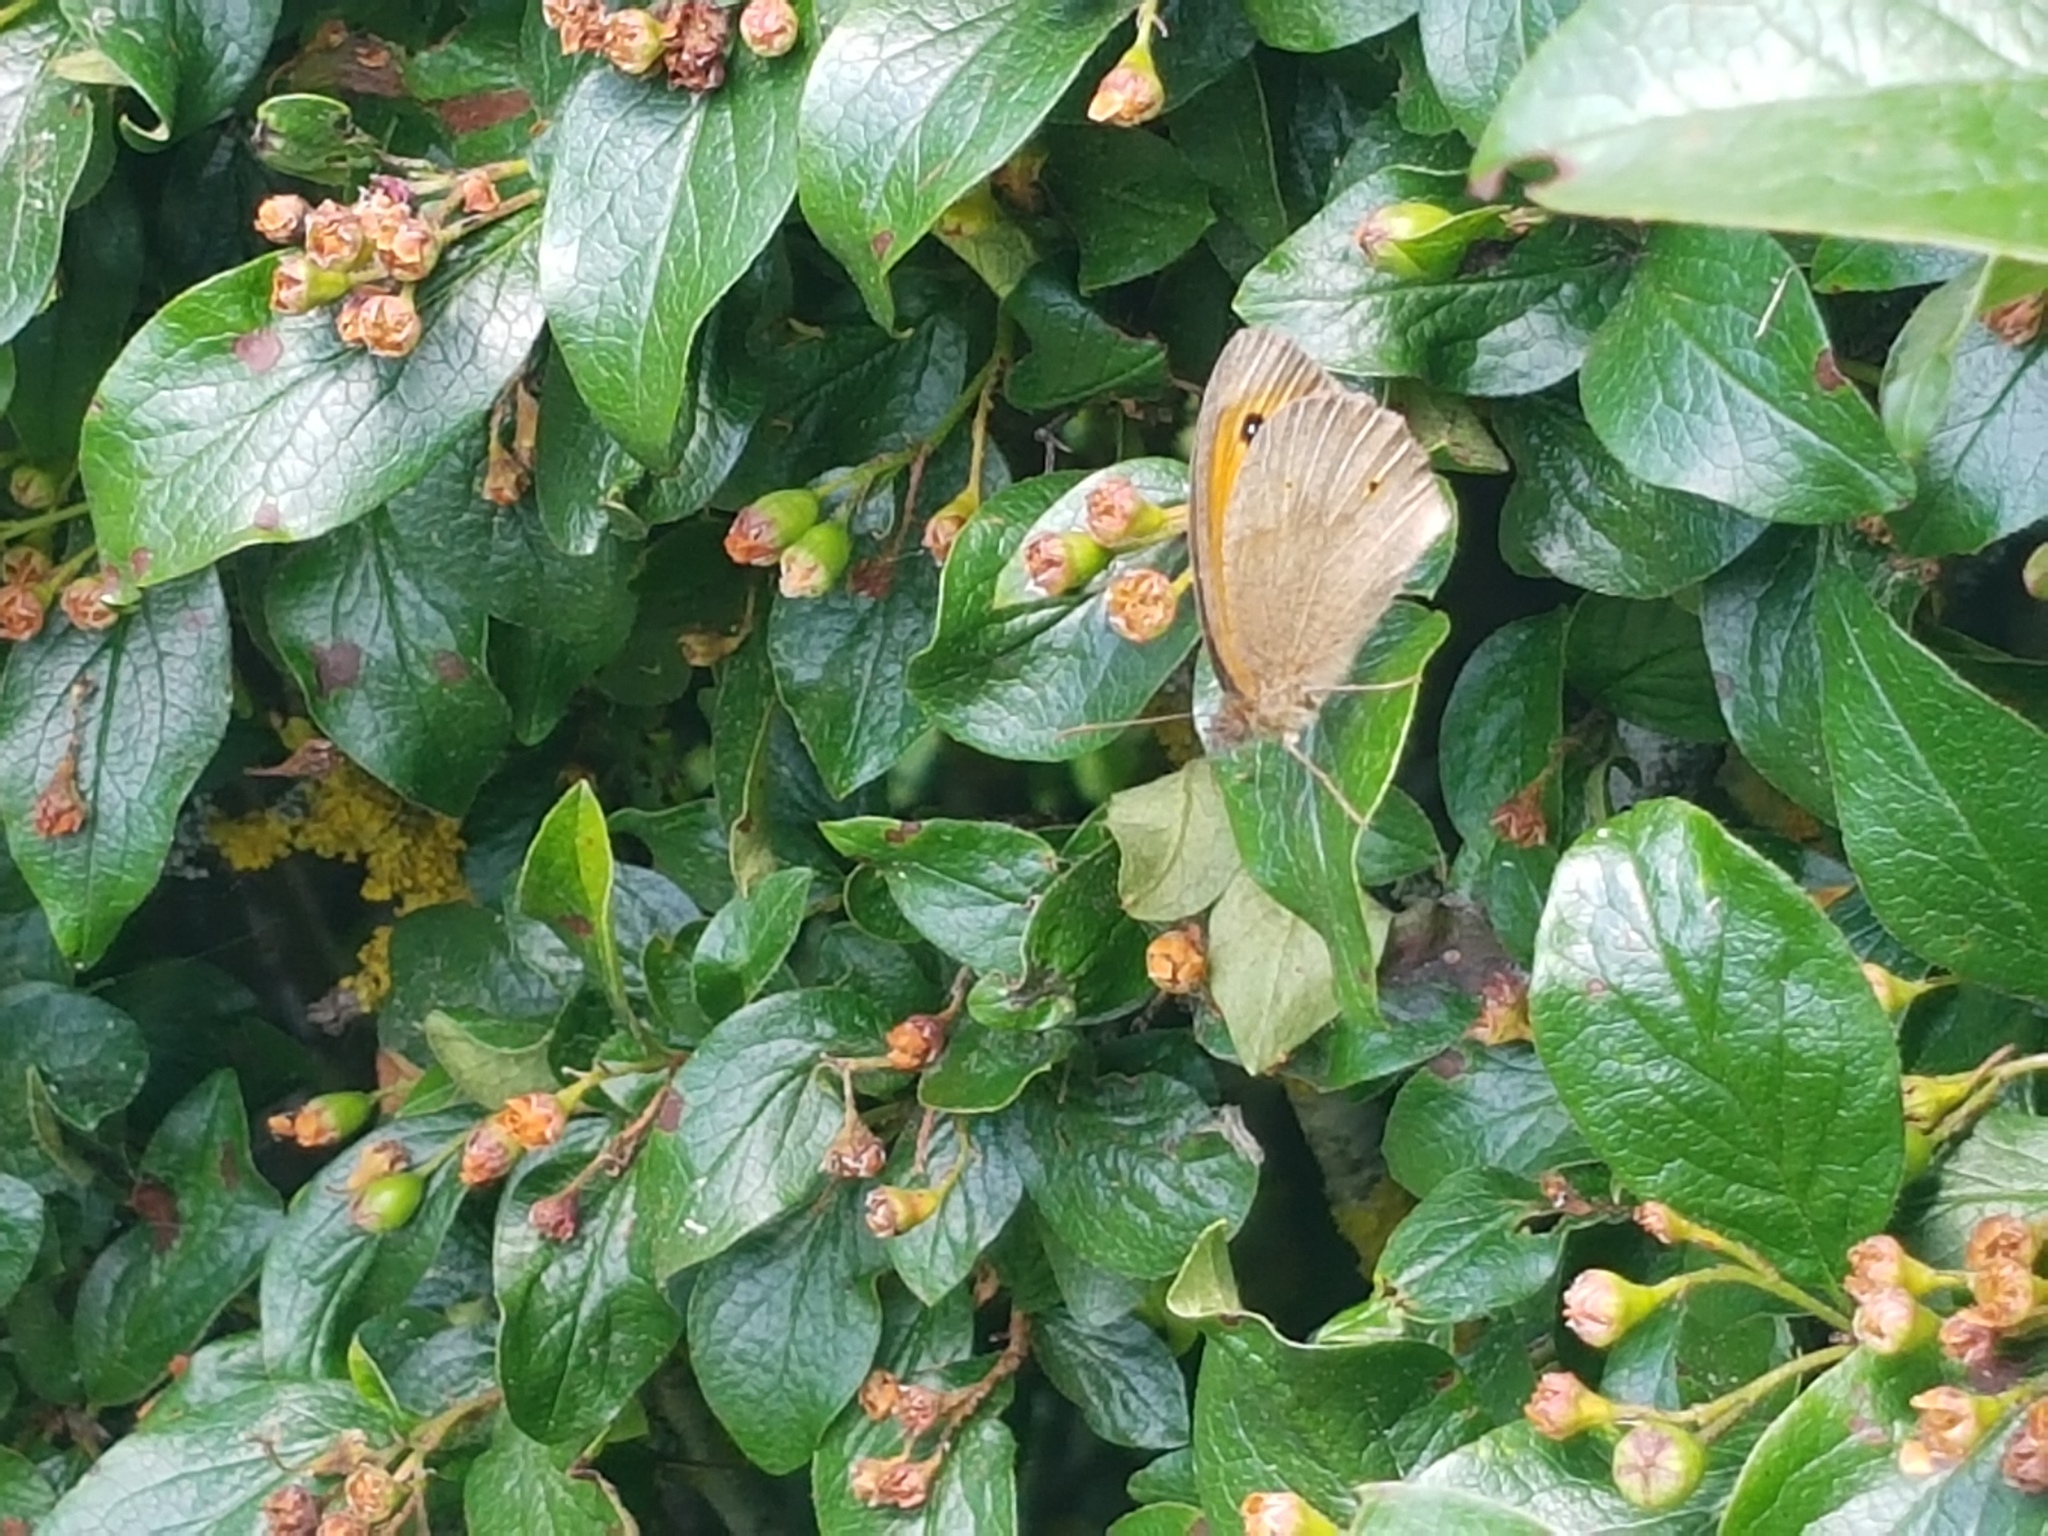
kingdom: Animalia
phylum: Arthropoda
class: Insecta
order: Lepidoptera
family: Nymphalidae
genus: Maniola
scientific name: Maniola jurtina
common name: Meadow brown
